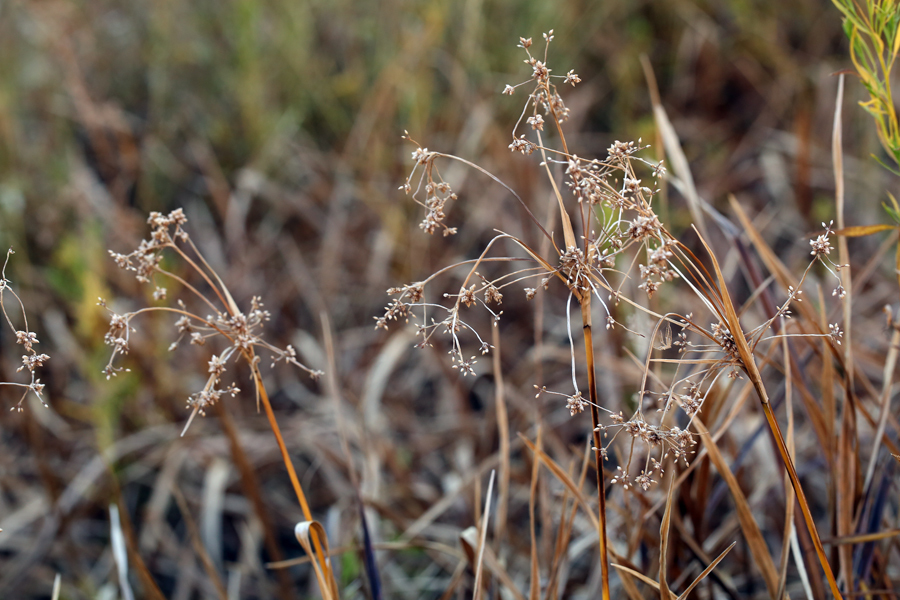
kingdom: Plantae
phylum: Tracheophyta
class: Liliopsida
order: Poales
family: Cyperaceae
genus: Scirpus
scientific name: Scirpus microcarpus
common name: Panicled bulrush
